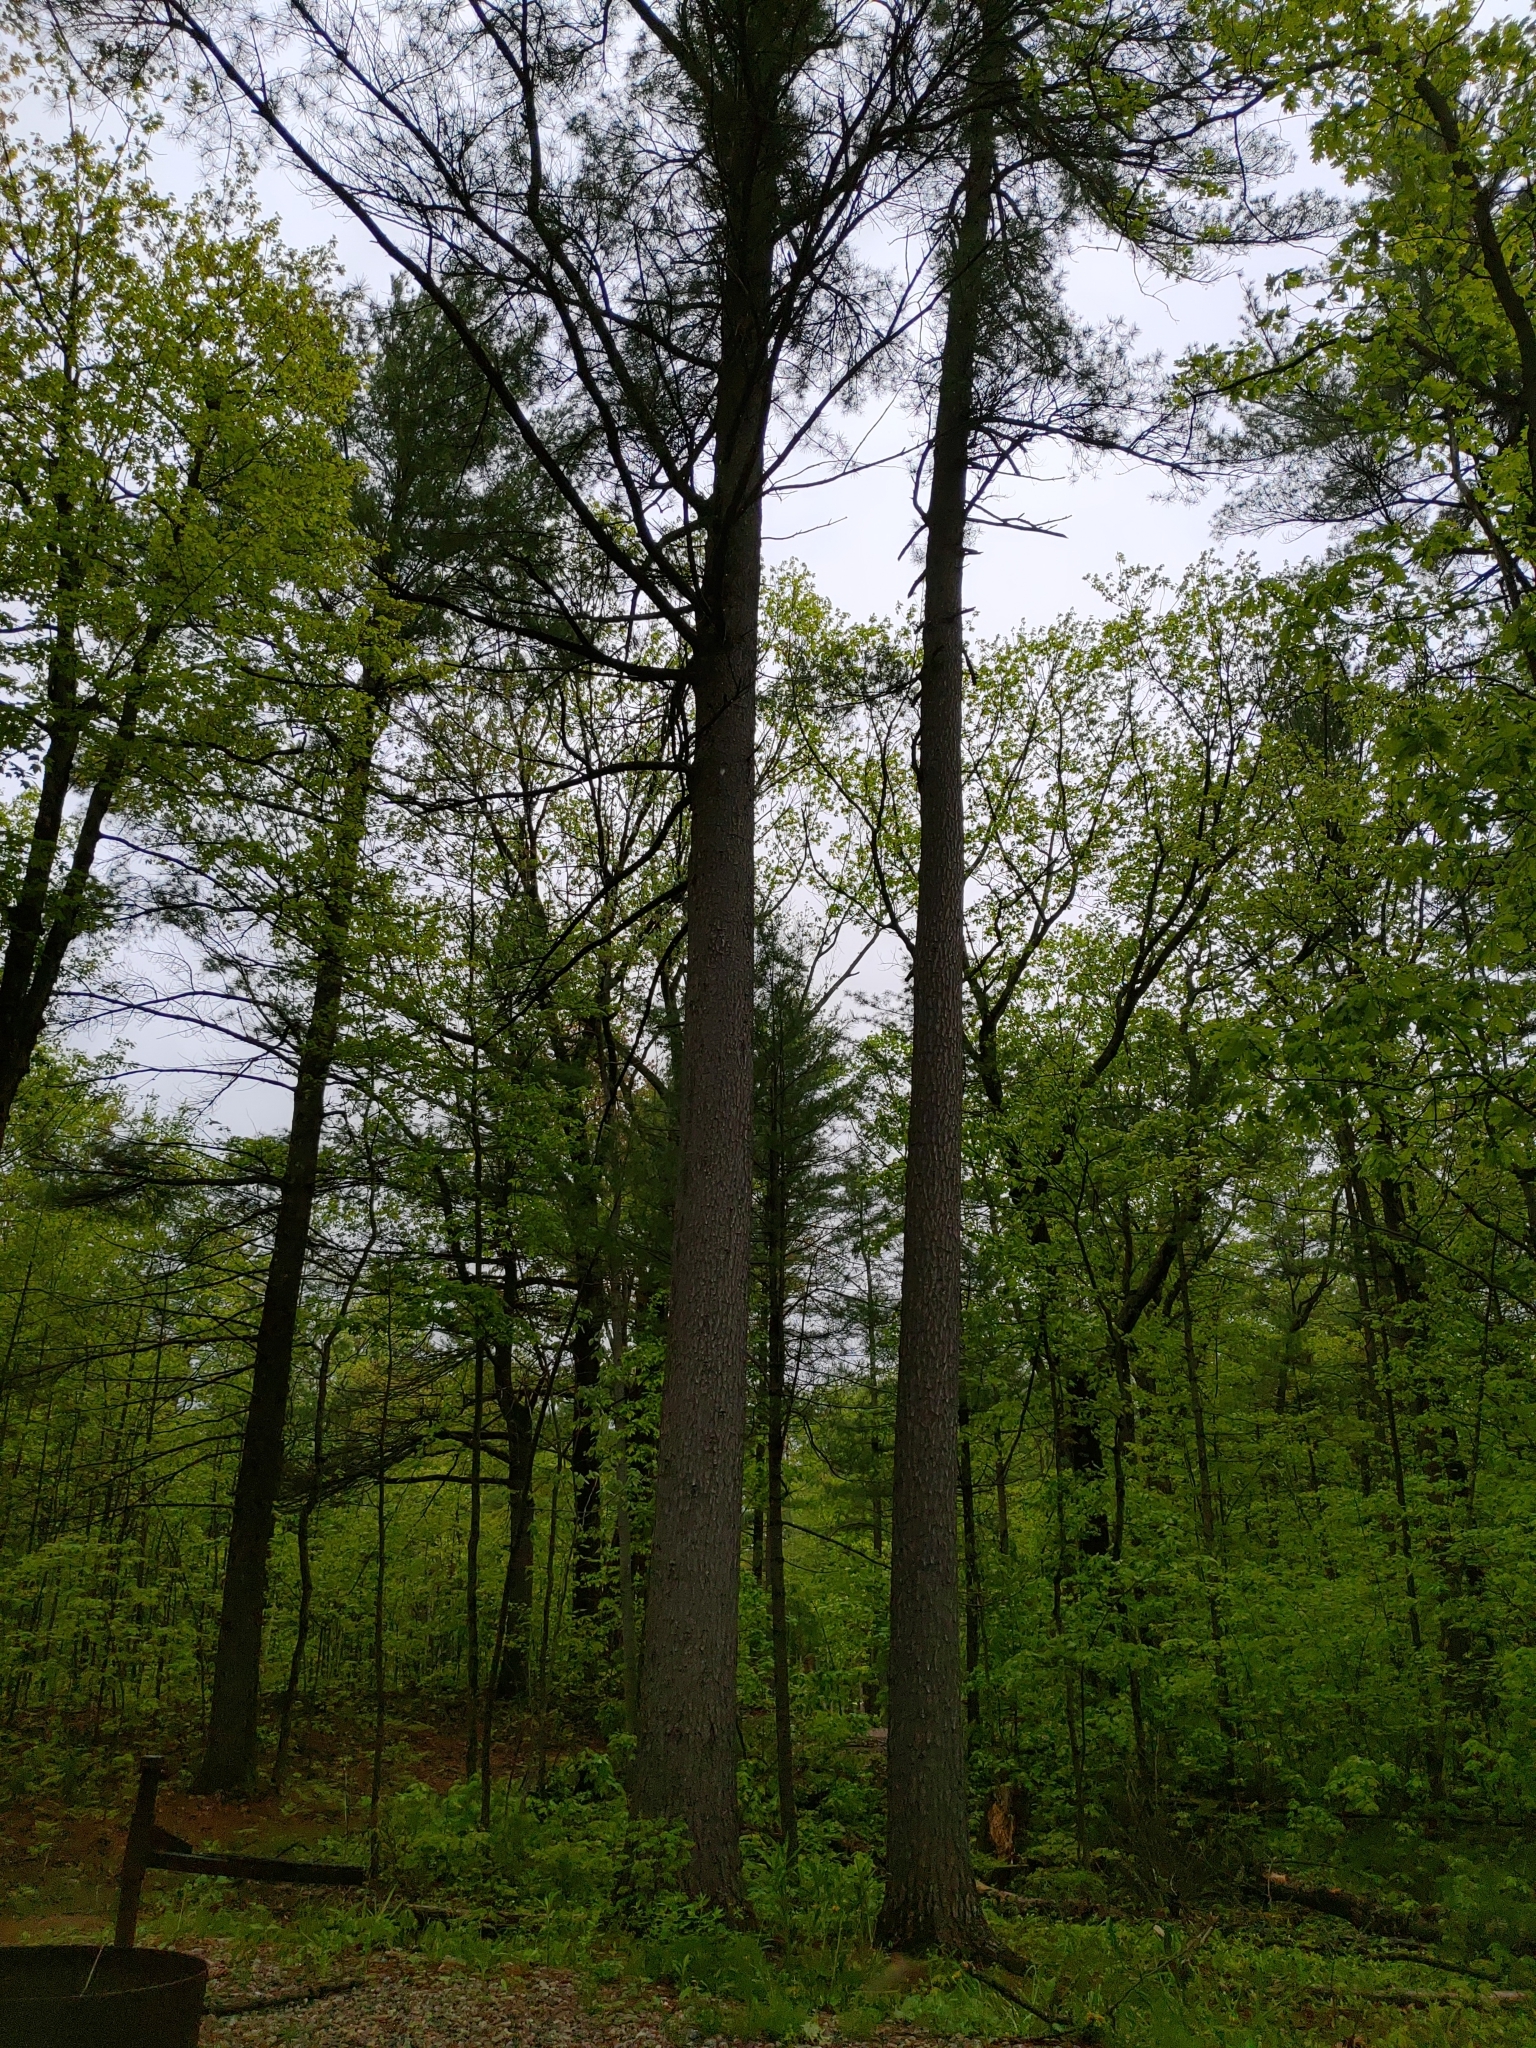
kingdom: Plantae
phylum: Tracheophyta
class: Pinopsida
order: Pinales
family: Pinaceae
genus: Pinus
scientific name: Pinus strobus
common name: Weymouth pine
